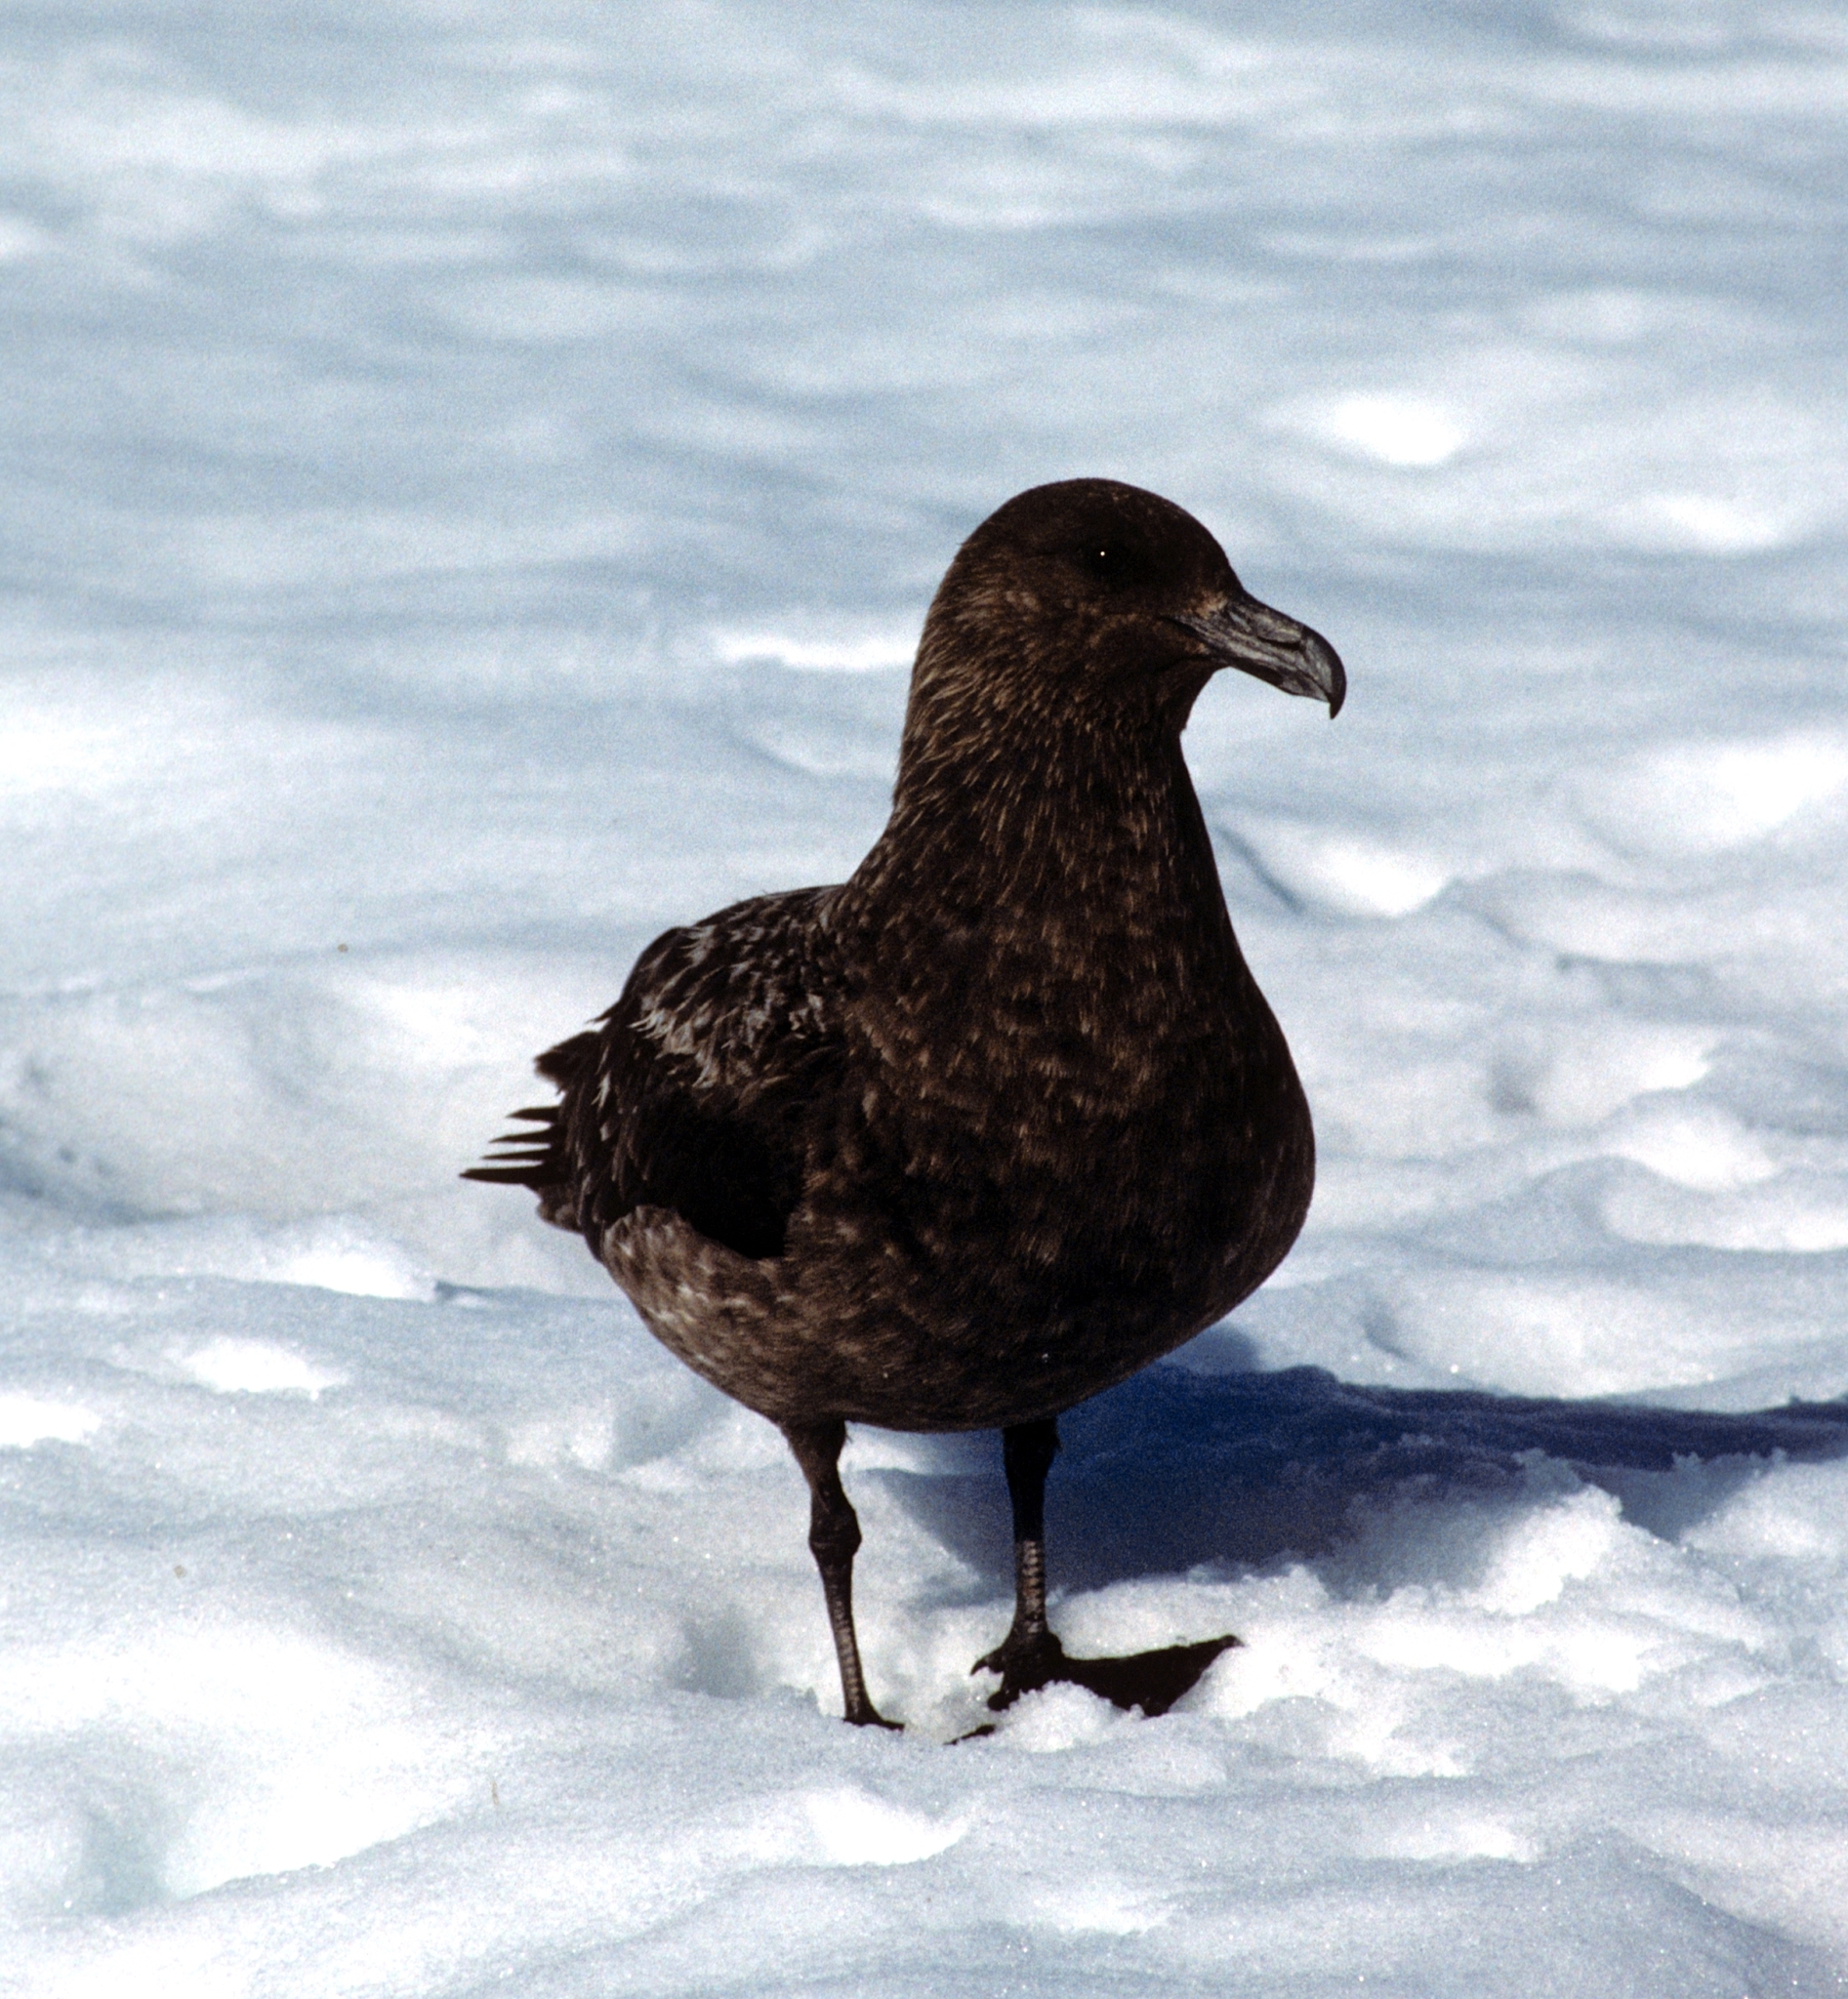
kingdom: Animalia
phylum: Chordata
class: Aves
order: Charadriiformes
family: Stercorariidae
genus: Stercorarius
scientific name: Stercorarius antarcticus
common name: Brown skua
